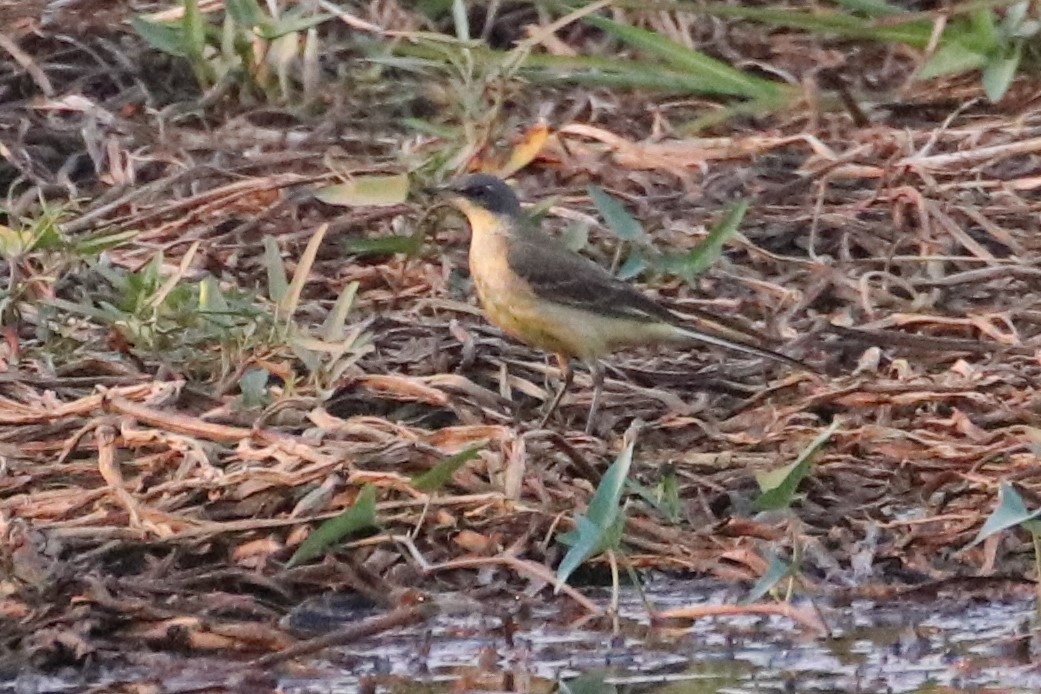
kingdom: Animalia
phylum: Chordata
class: Aves
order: Passeriformes
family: Motacillidae
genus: Motacilla
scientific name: Motacilla tschutschensis
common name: Eastern yellow wagtail
